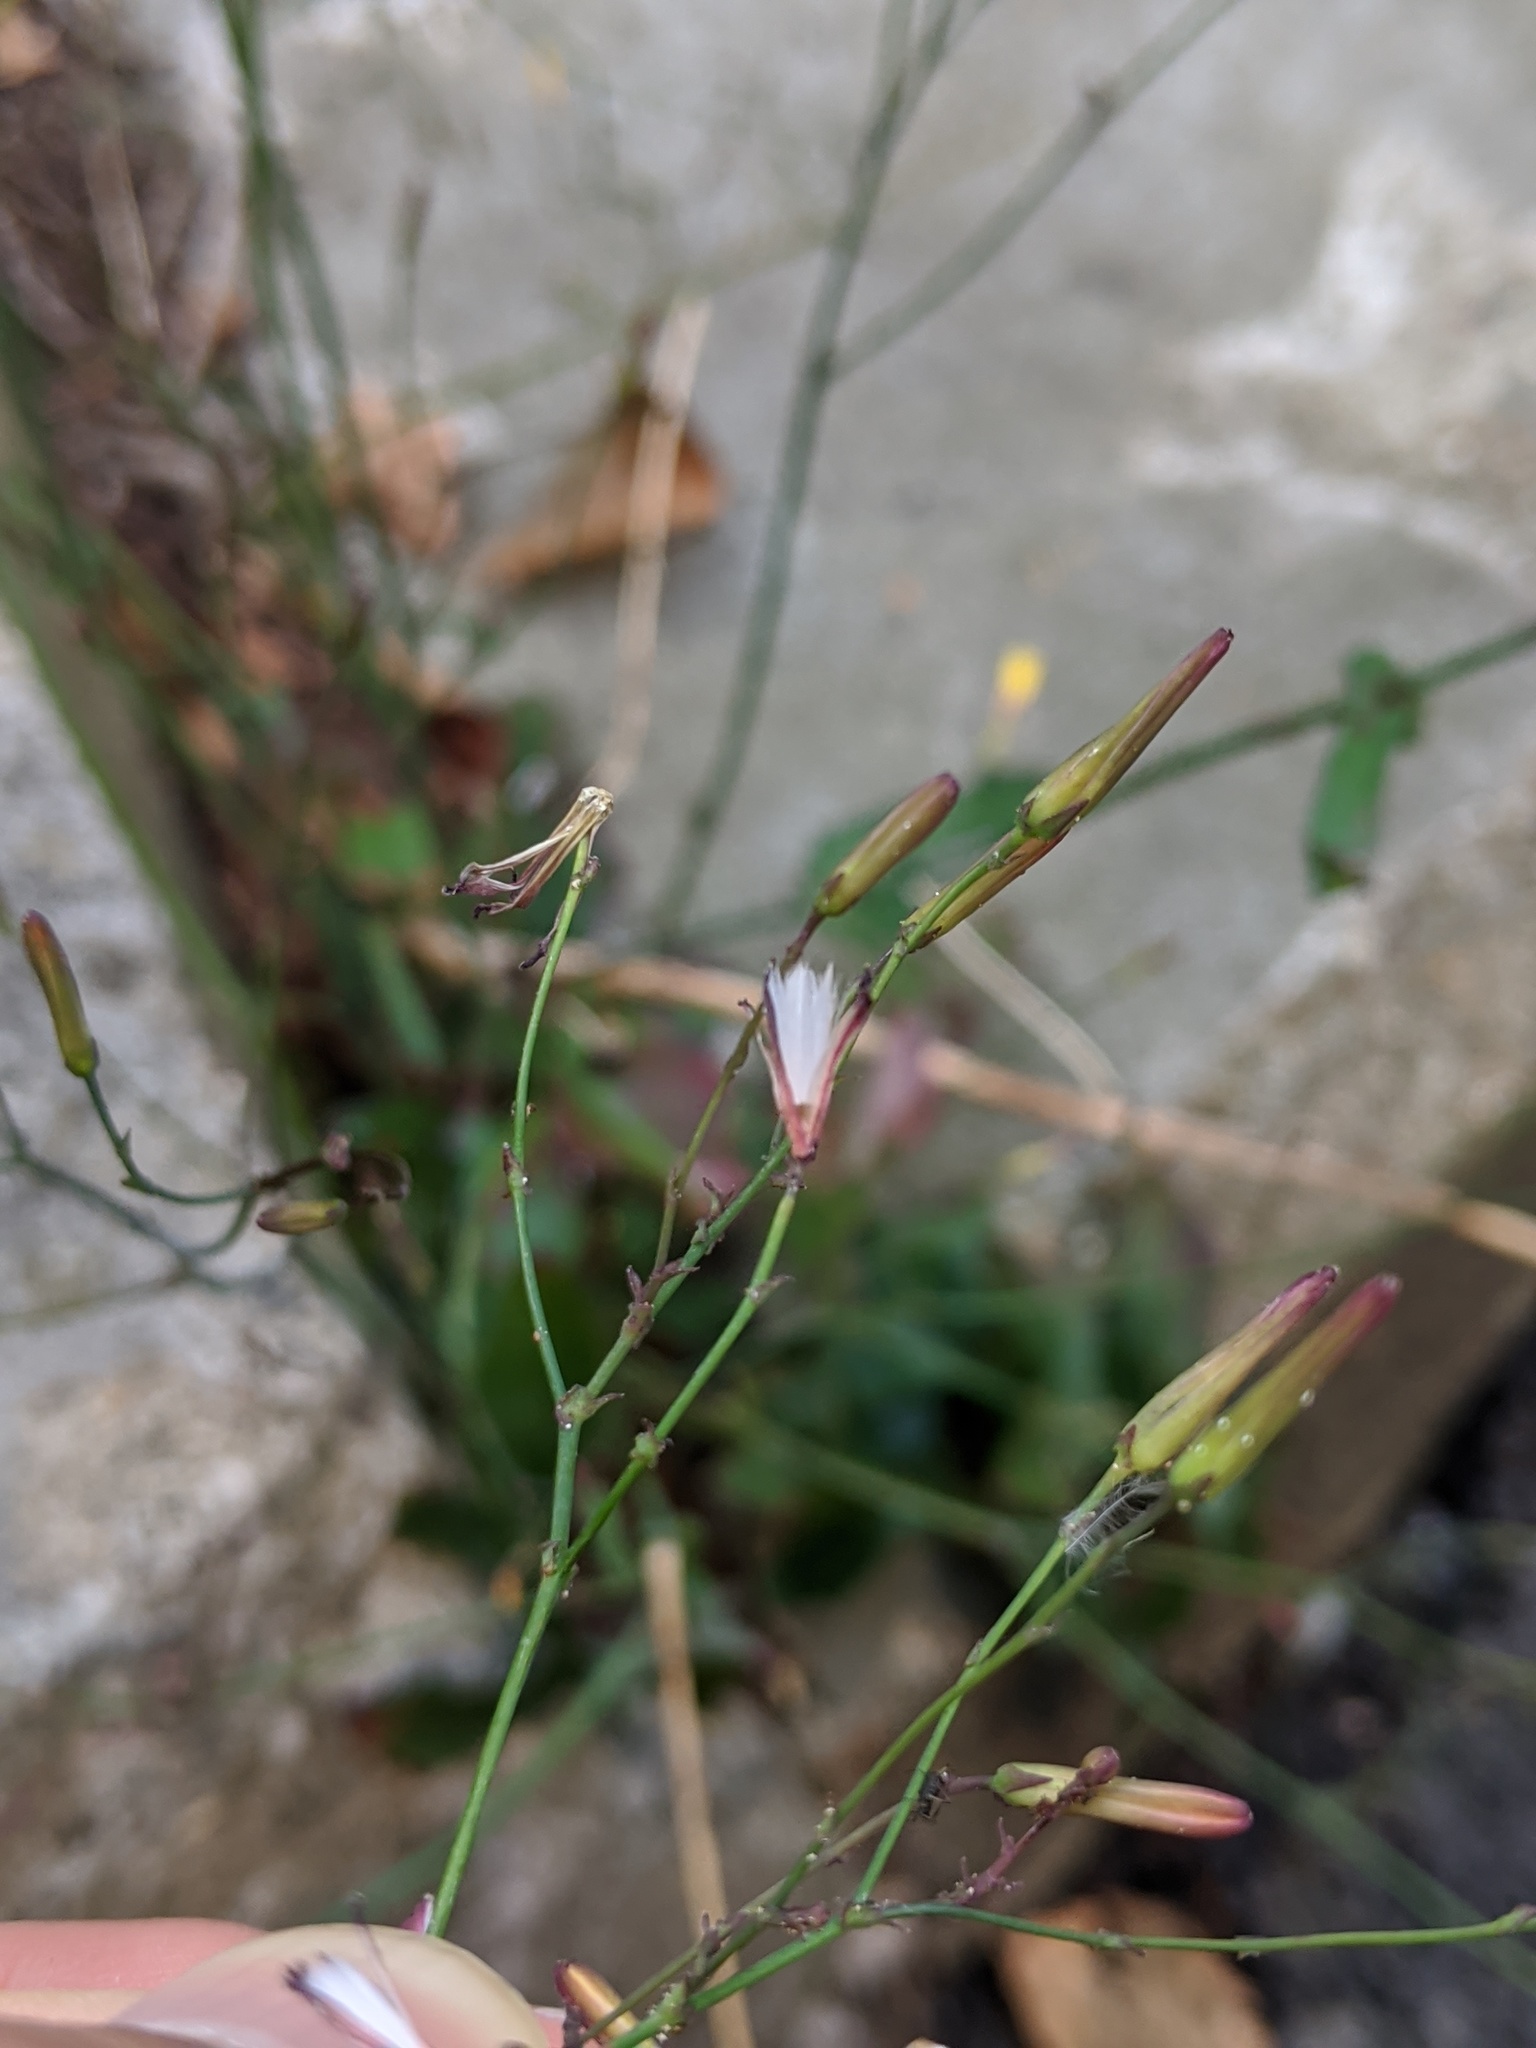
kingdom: Plantae
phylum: Tracheophyta
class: Magnoliopsida
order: Asterales
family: Asteraceae
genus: Mycelis
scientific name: Mycelis muralis
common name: Wall lettuce
